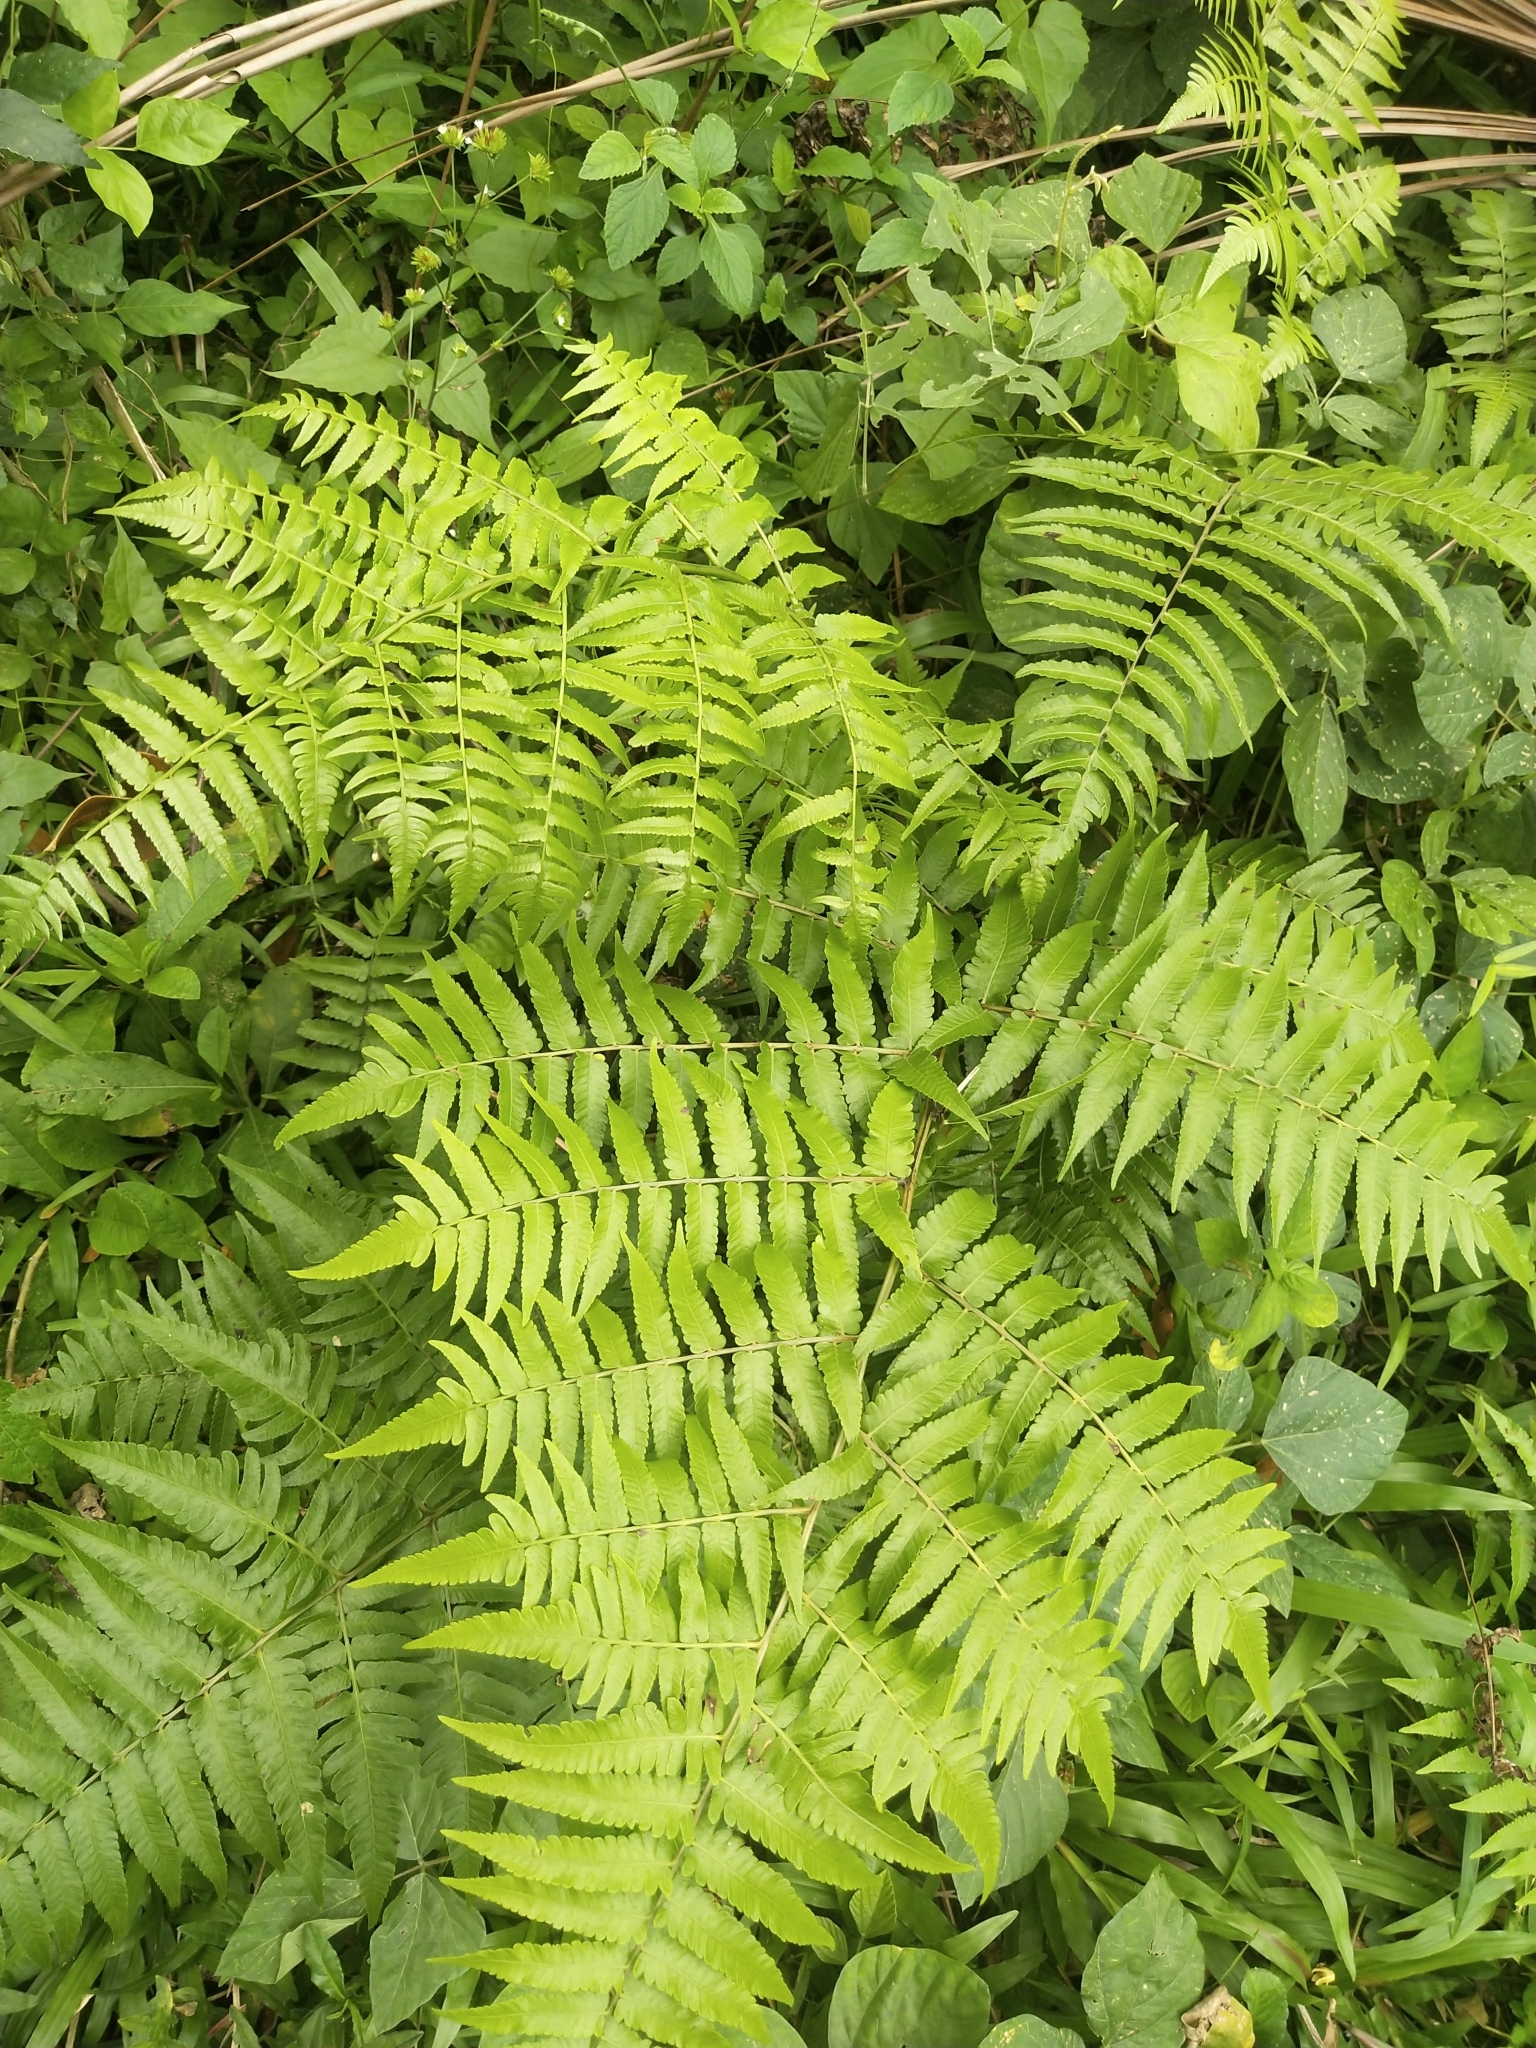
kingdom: Plantae
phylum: Tracheophyta
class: Polypodiopsida
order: Polypodiales
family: Athyriaceae
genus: Diplazium
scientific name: Diplazium esculentum
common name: Vegetable fern
